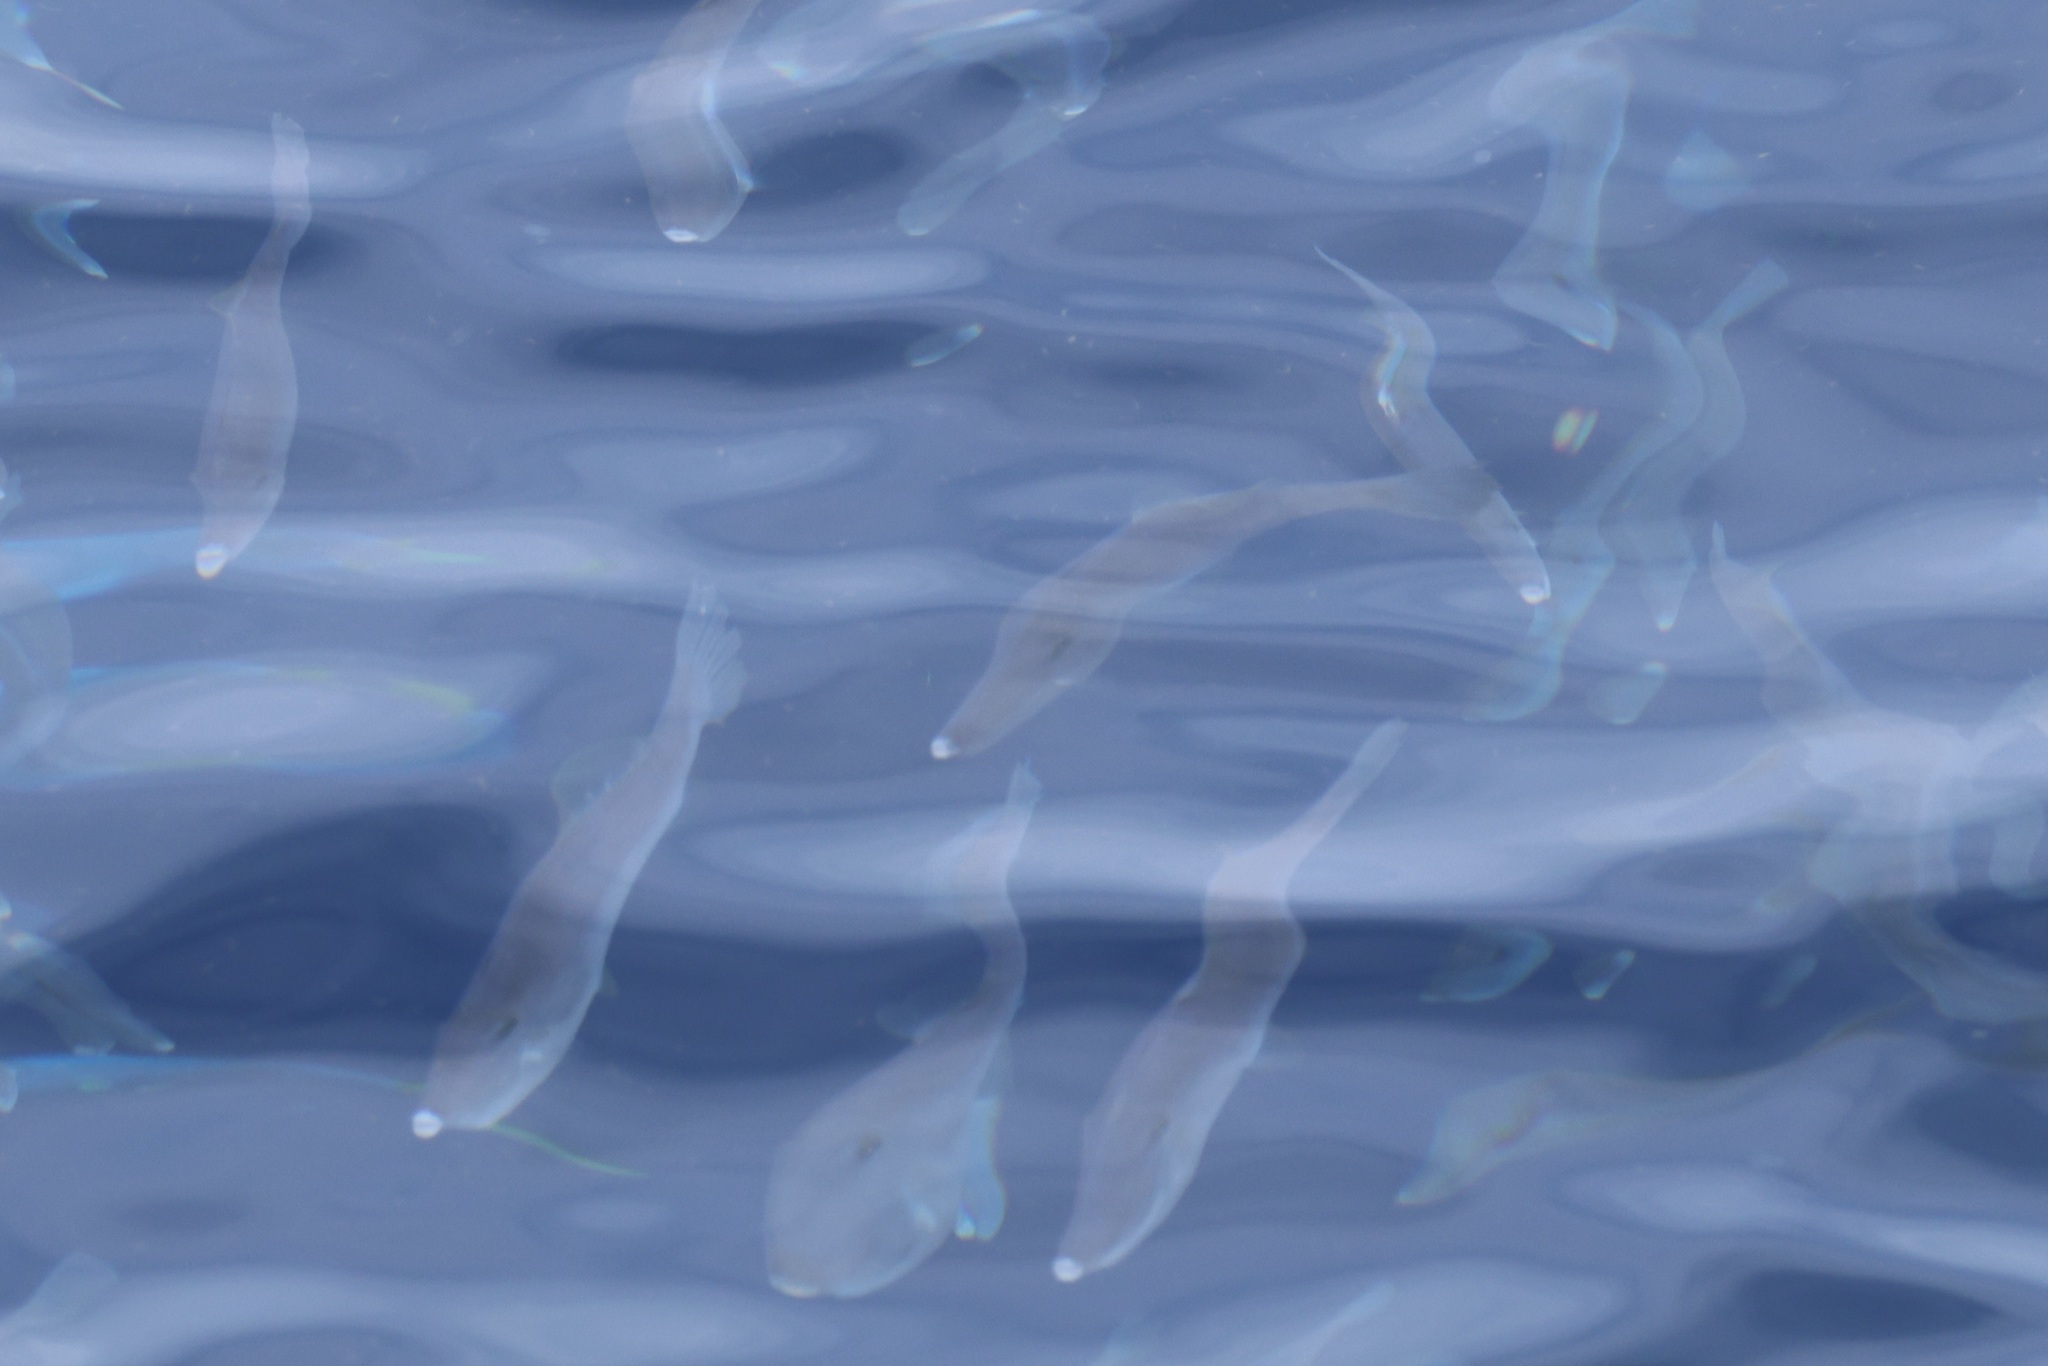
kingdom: Animalia
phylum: Chordata
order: Tetraodontiformes
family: Balistidae
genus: Balistes
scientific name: Balistes capriscus
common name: Grey triggerfish
